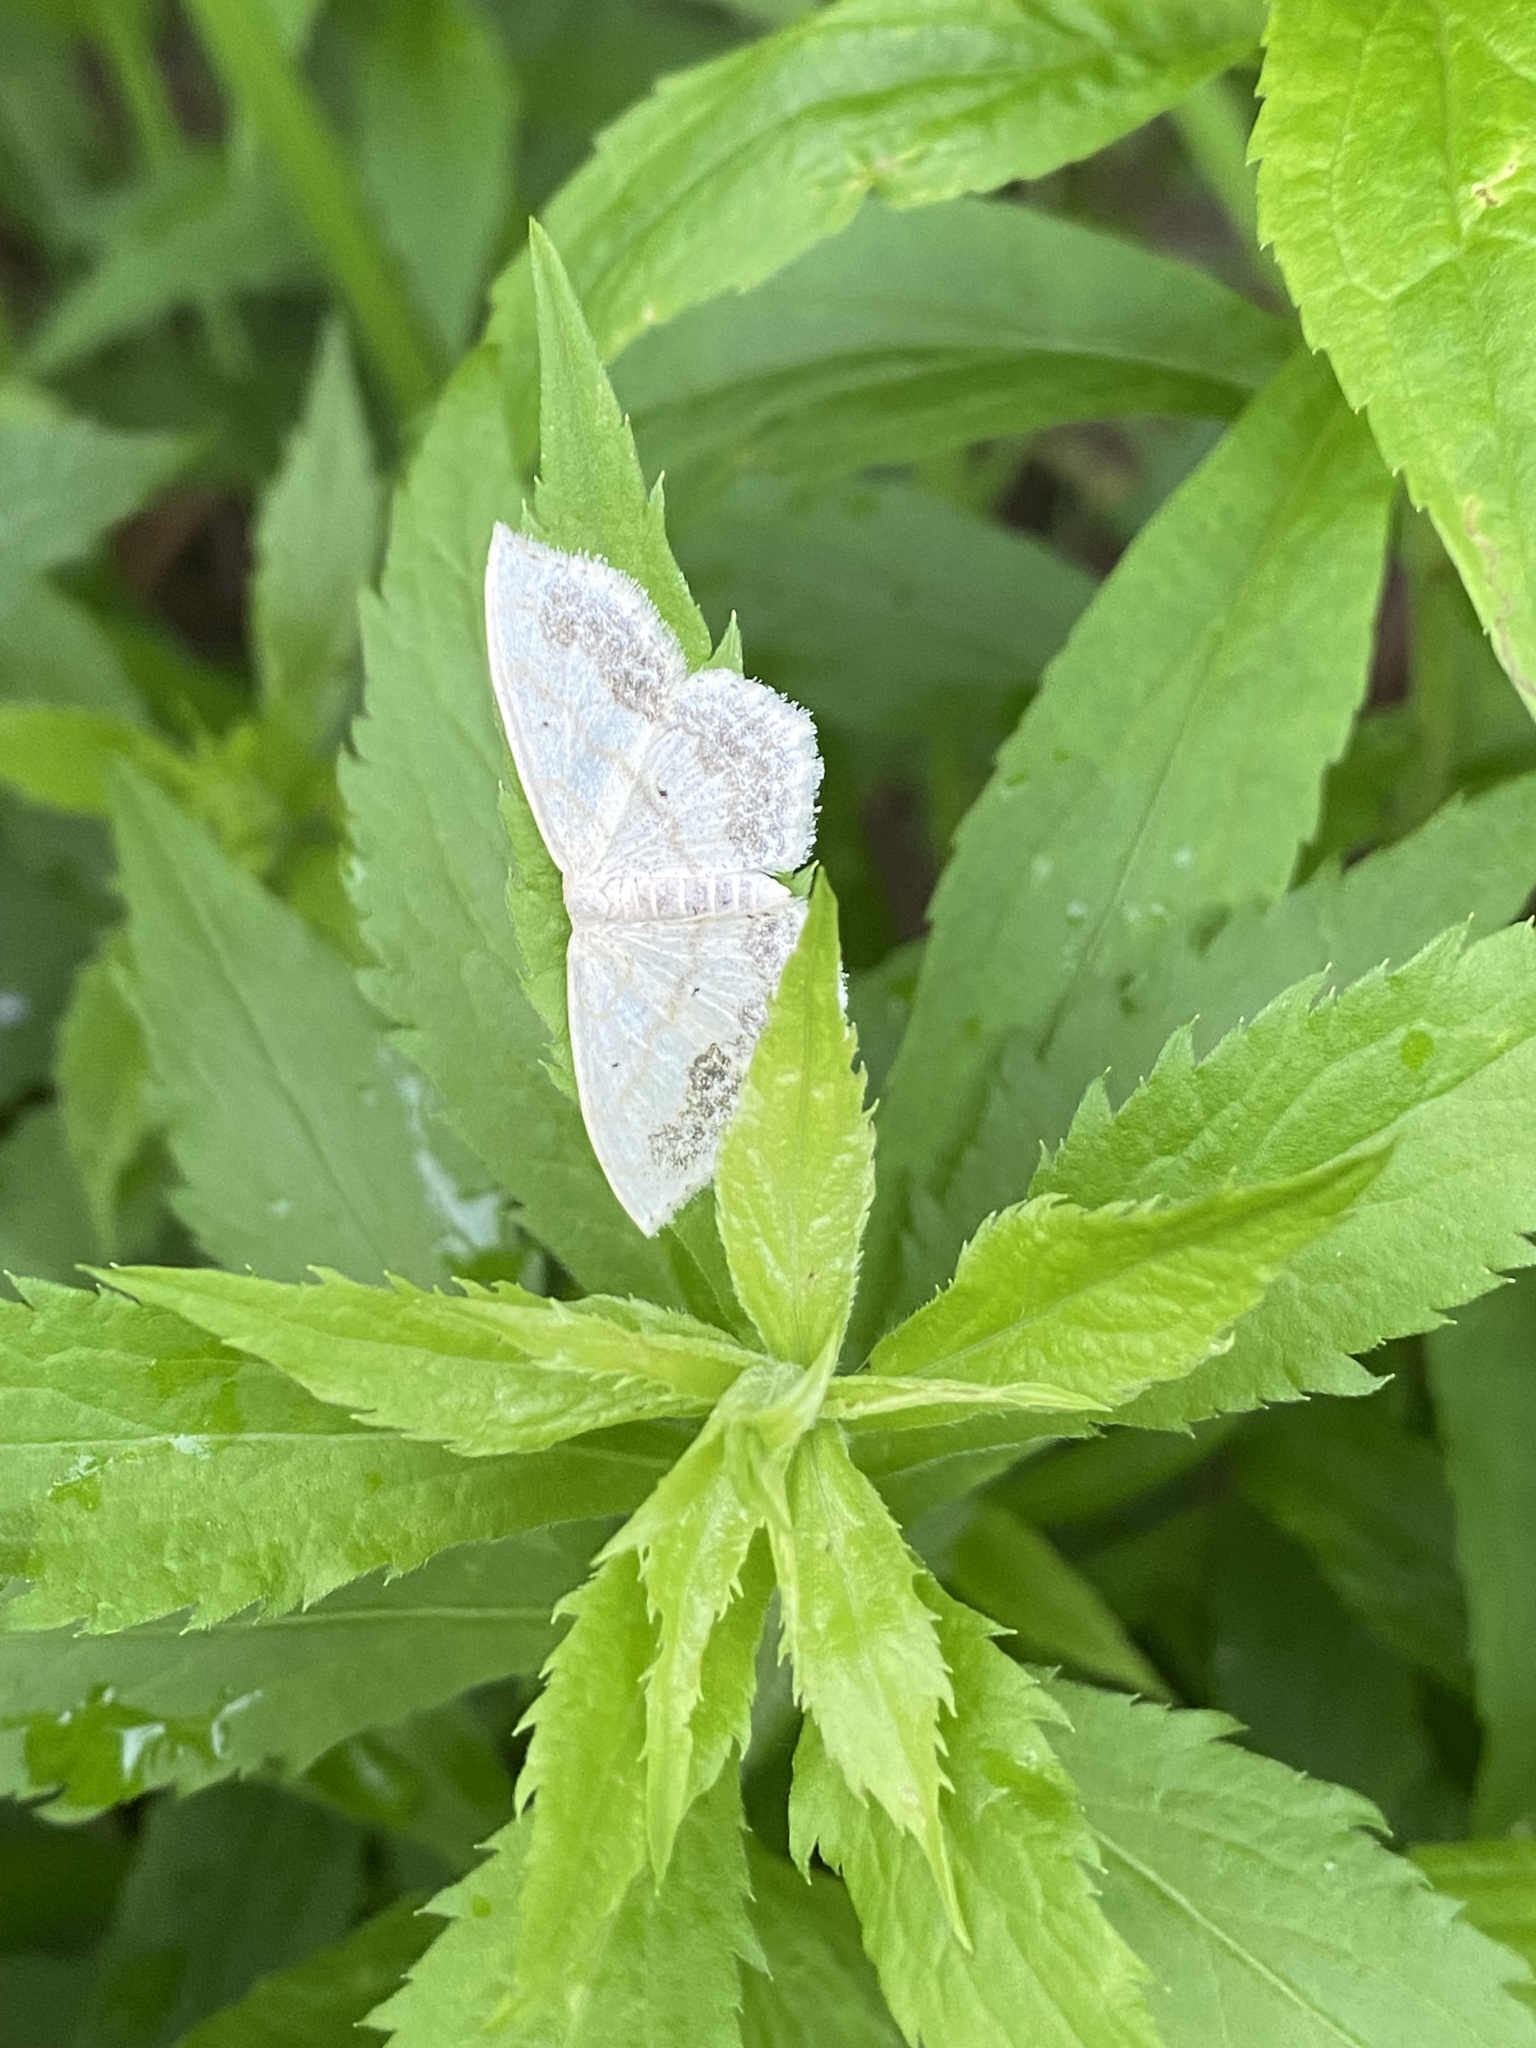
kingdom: Animalia
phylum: Arthropoda
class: Insecta
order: Lepidoptera
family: Geometridae
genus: Scopula
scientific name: Scopula limboundata
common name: Large lace border
